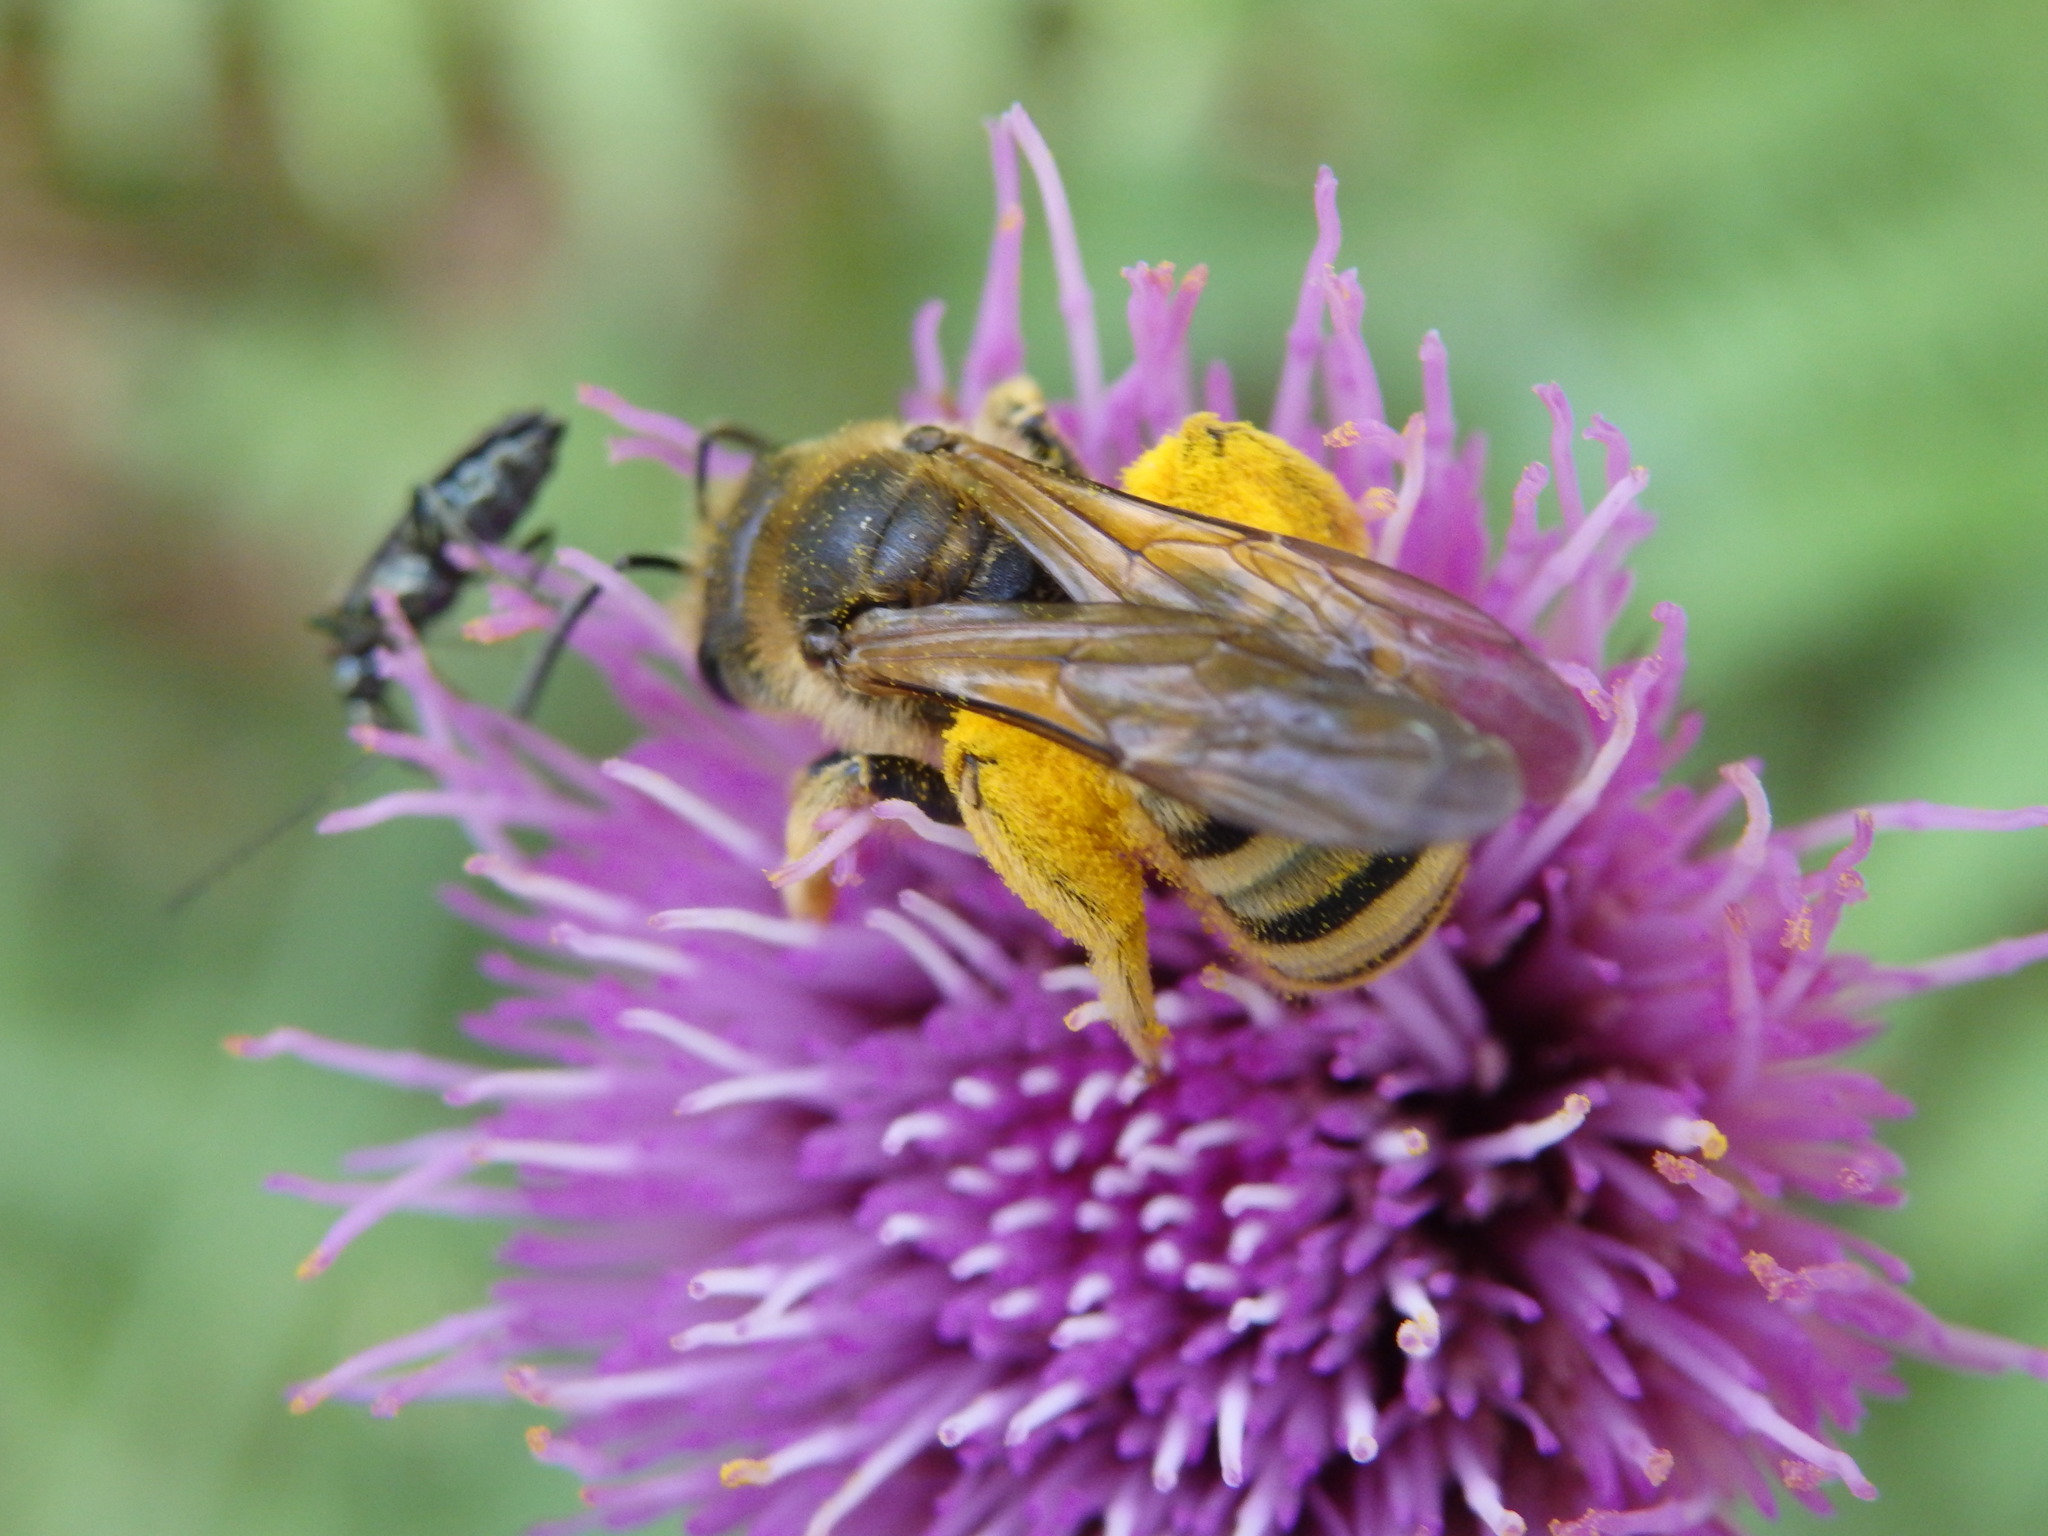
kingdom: Animalia
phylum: Arthropoda
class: Insecta
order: Hymenoptera
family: Halictidae
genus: Halictus
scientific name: Halictus scabiosae
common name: Great banded furrow bee
